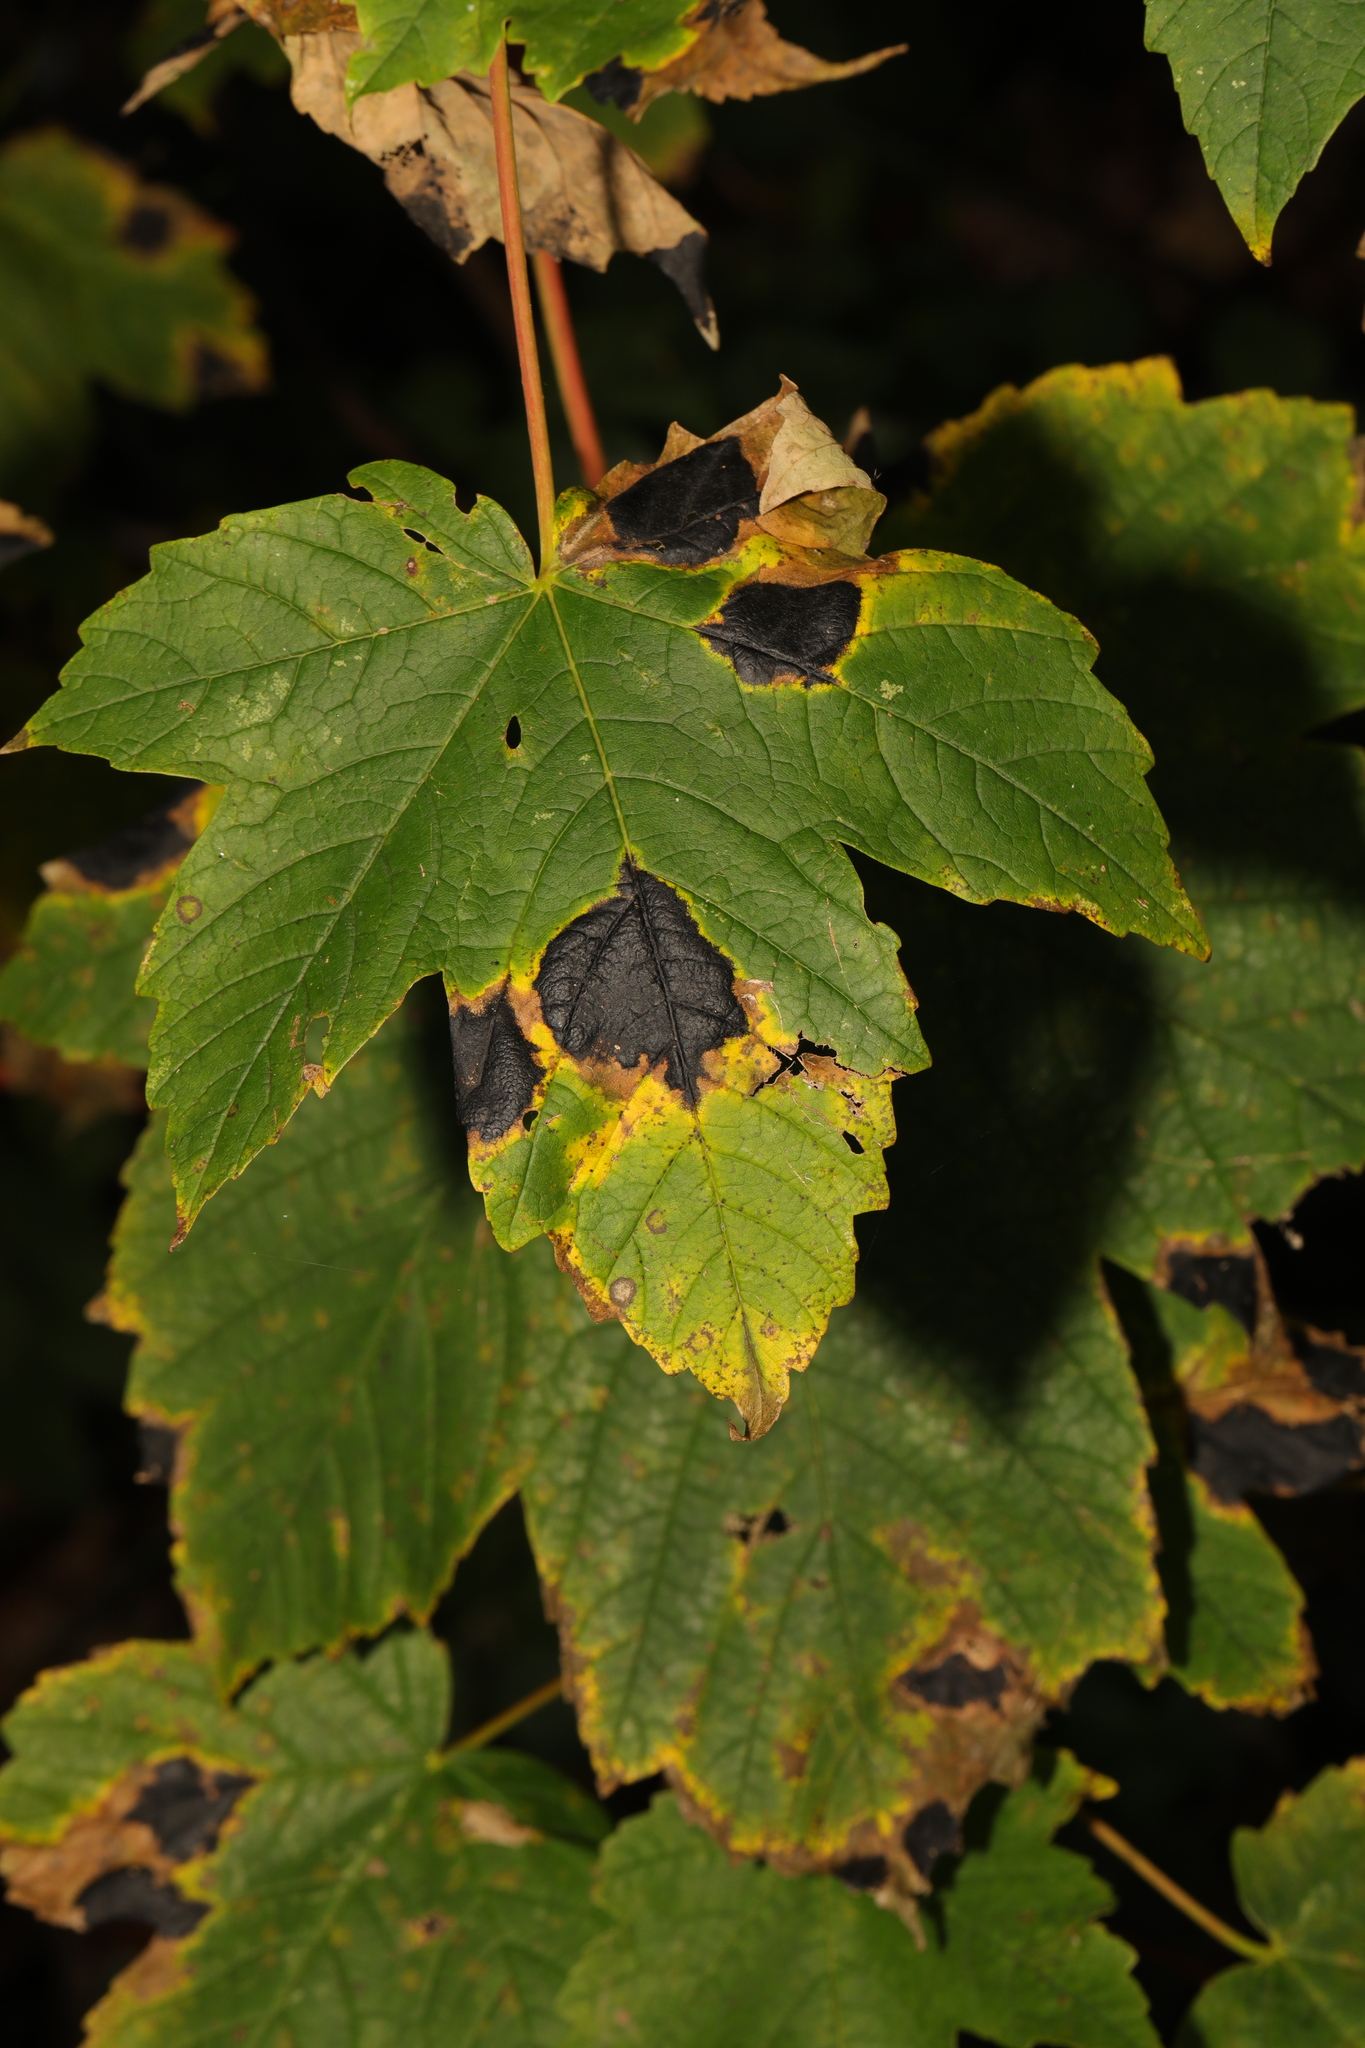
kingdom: Plantae
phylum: Tracheophyta
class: Magnoliopsida
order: Sapindales
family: Sapindaceae
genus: Acer
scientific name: Acer pseudoplatanus
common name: Sycamore
